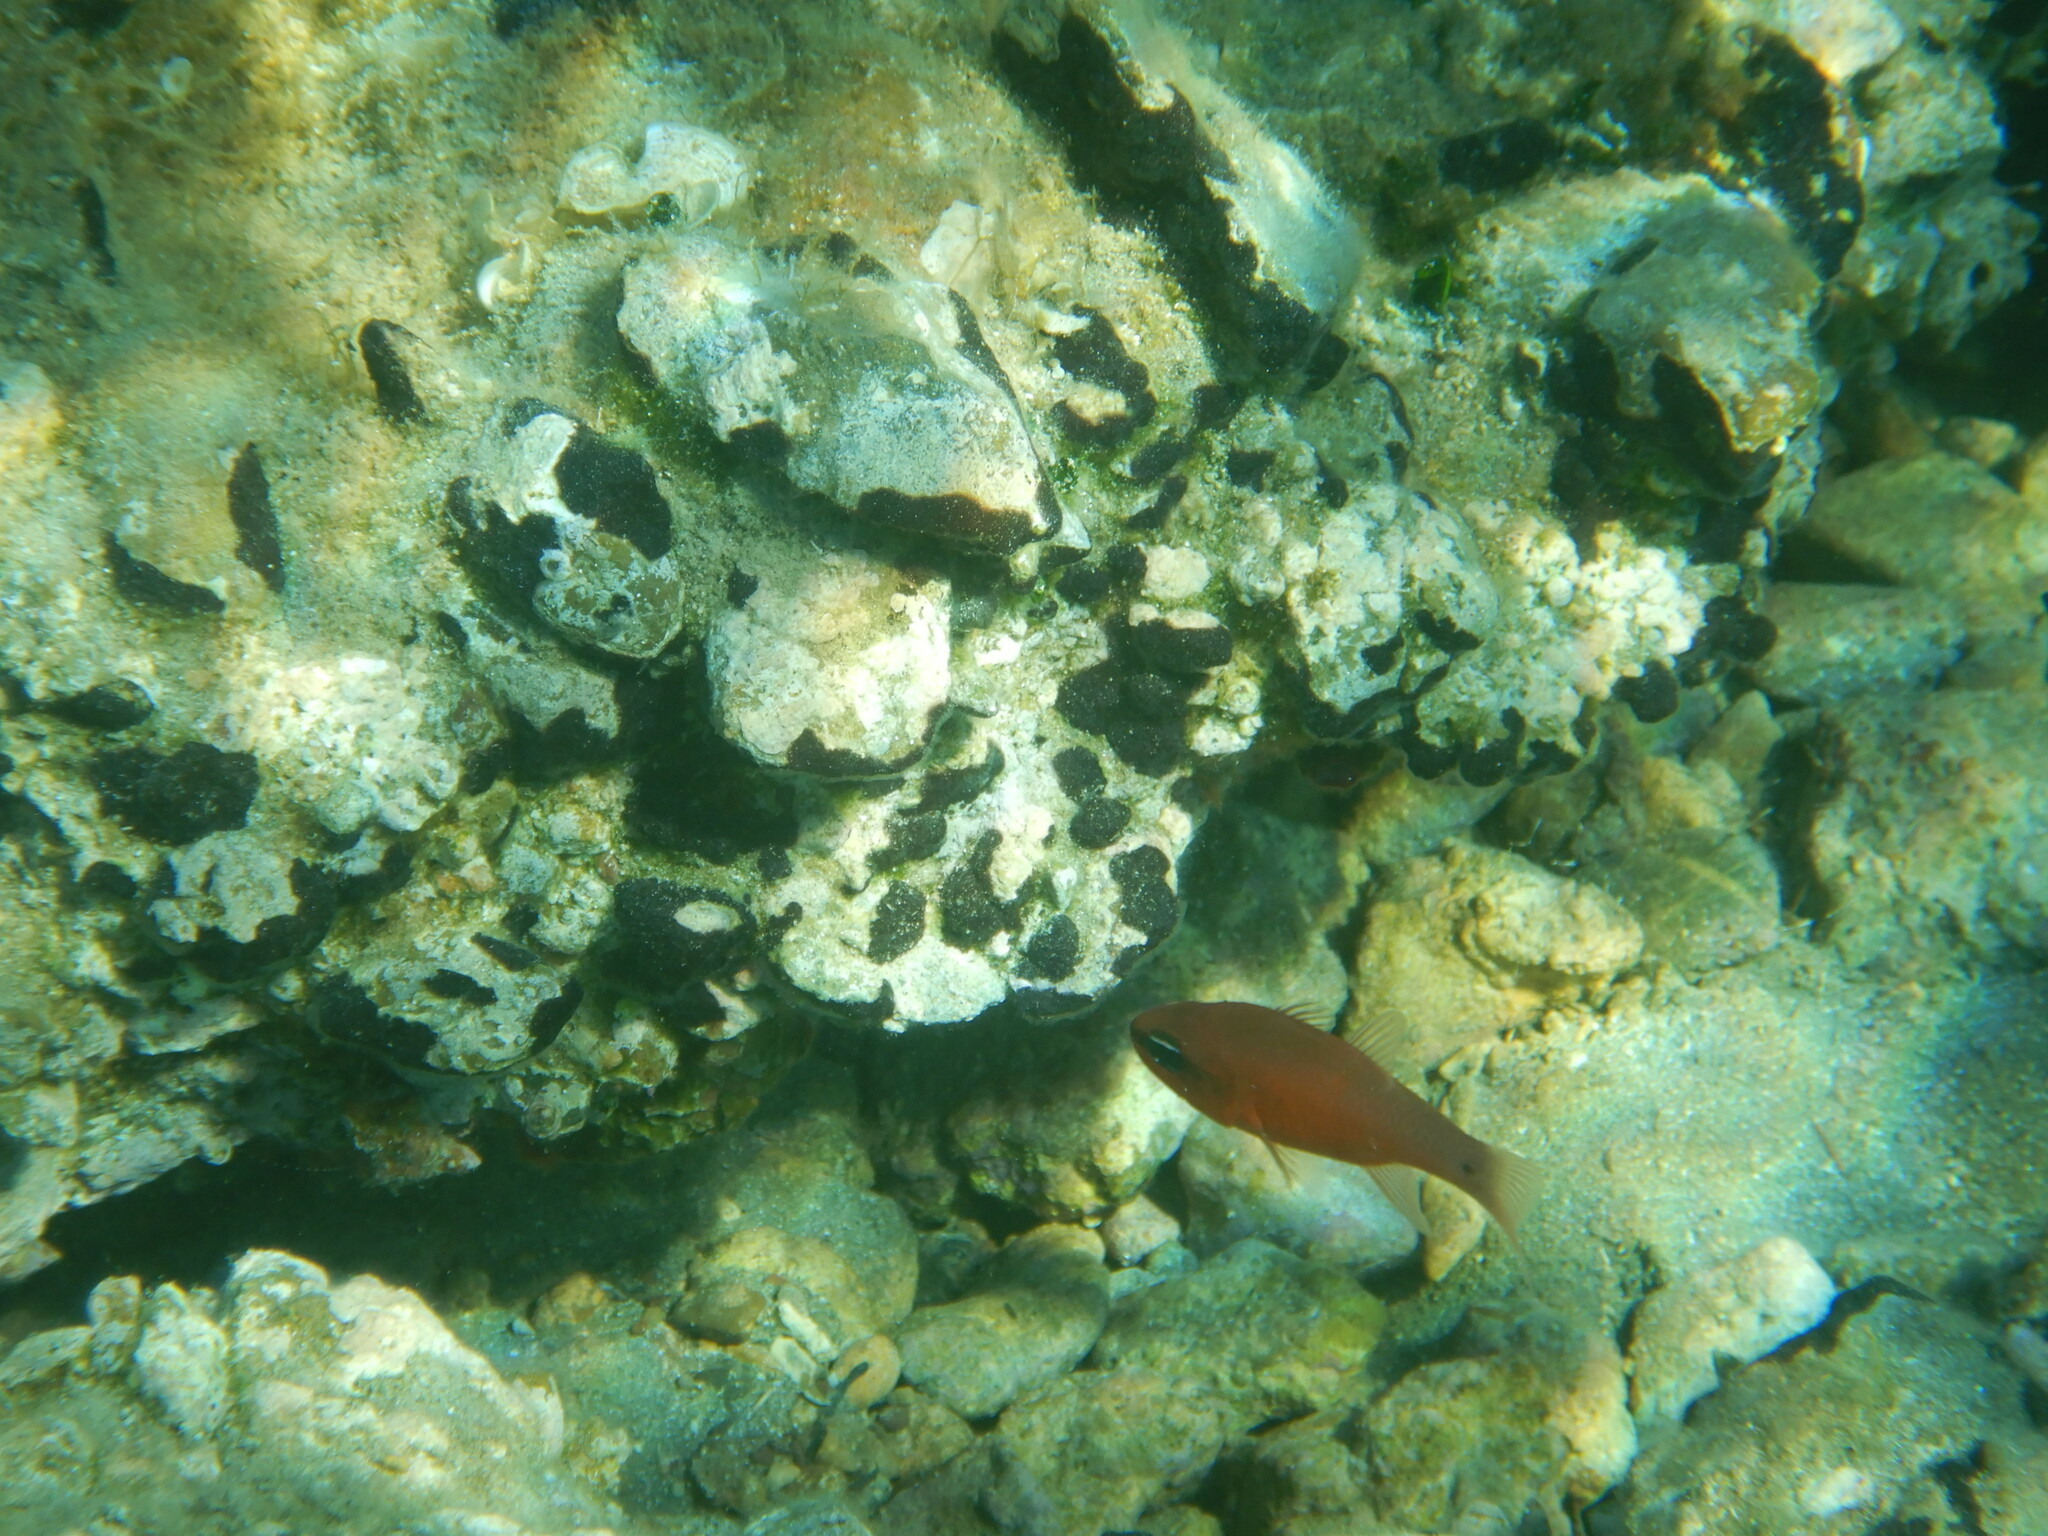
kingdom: Animalia
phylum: Chordata
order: Perciformes
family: Apogonidae
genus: Apogon
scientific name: Apogon imberbis
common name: Cardinal fish
